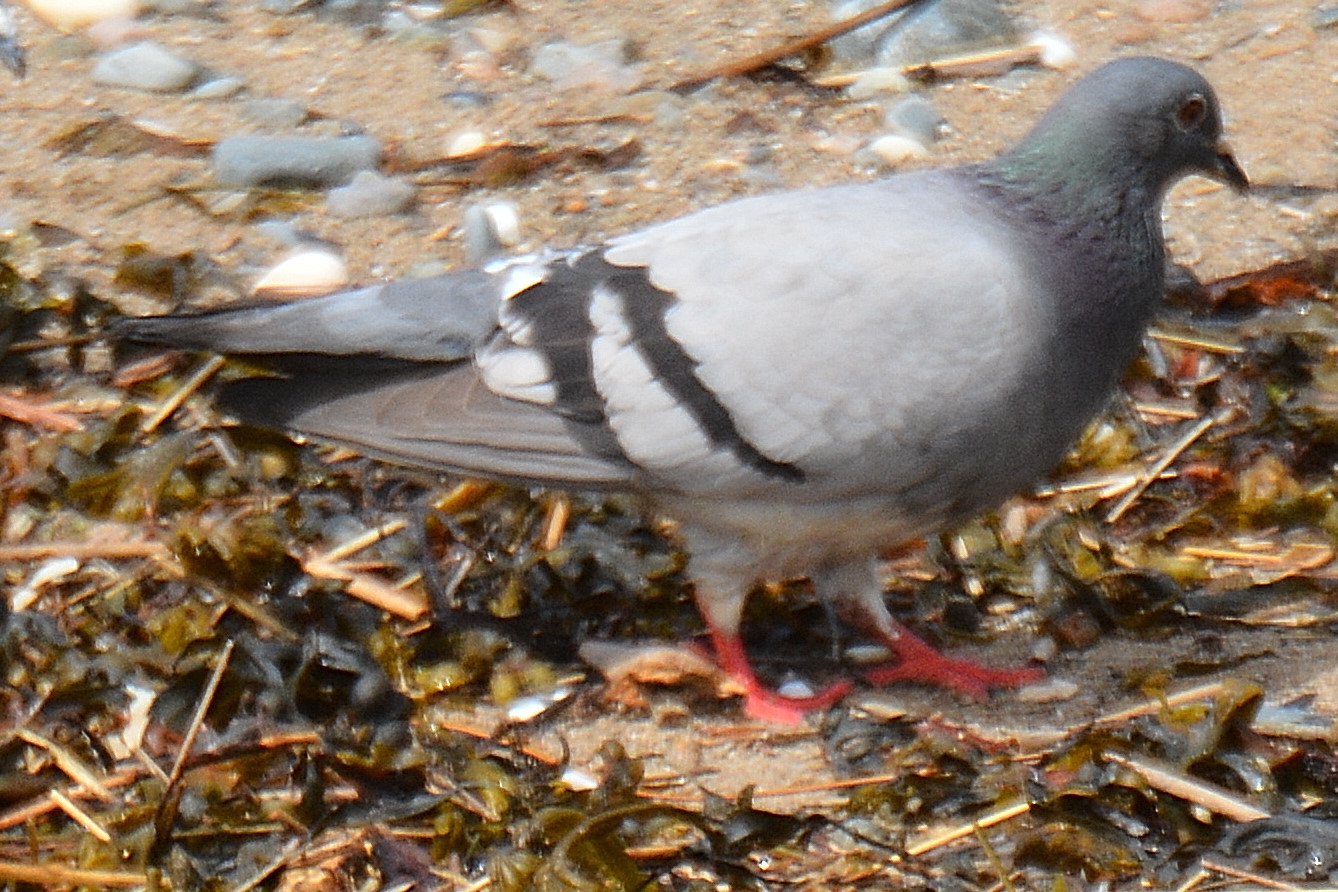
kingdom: Animalia
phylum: Chordata
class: Aves
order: Columbiformes
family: Columbidae
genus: Columba
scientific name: Columba livia
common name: Rock pigeon
